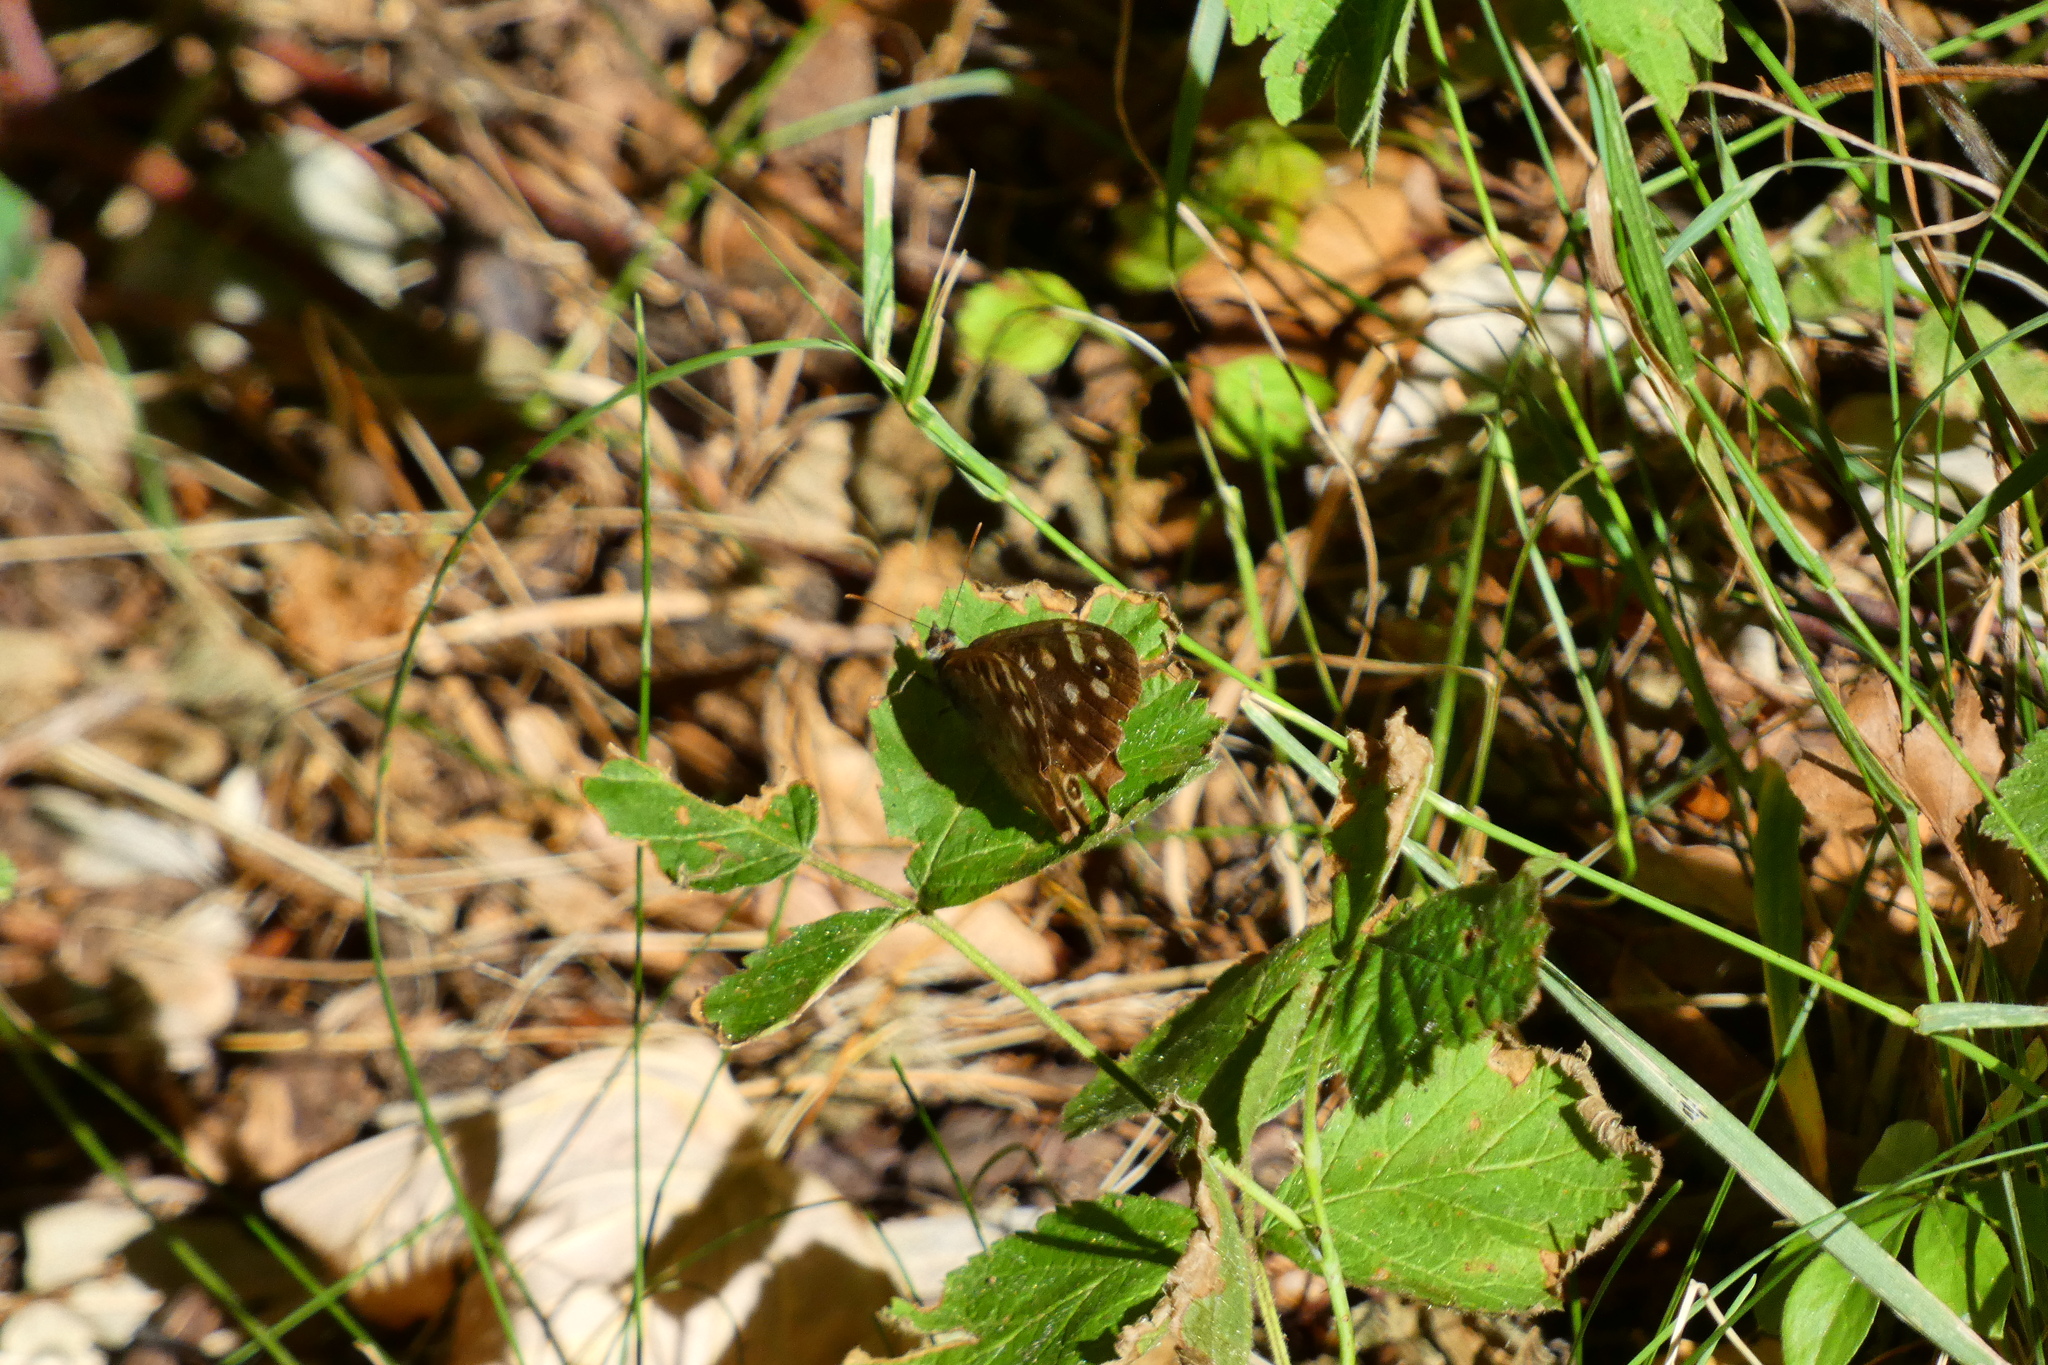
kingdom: Animalia
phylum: Arthropoda
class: Insecta
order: Lepidoptera
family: Nymphalidae
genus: Pararge
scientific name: Pararge aegeria
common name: Speckled wood
